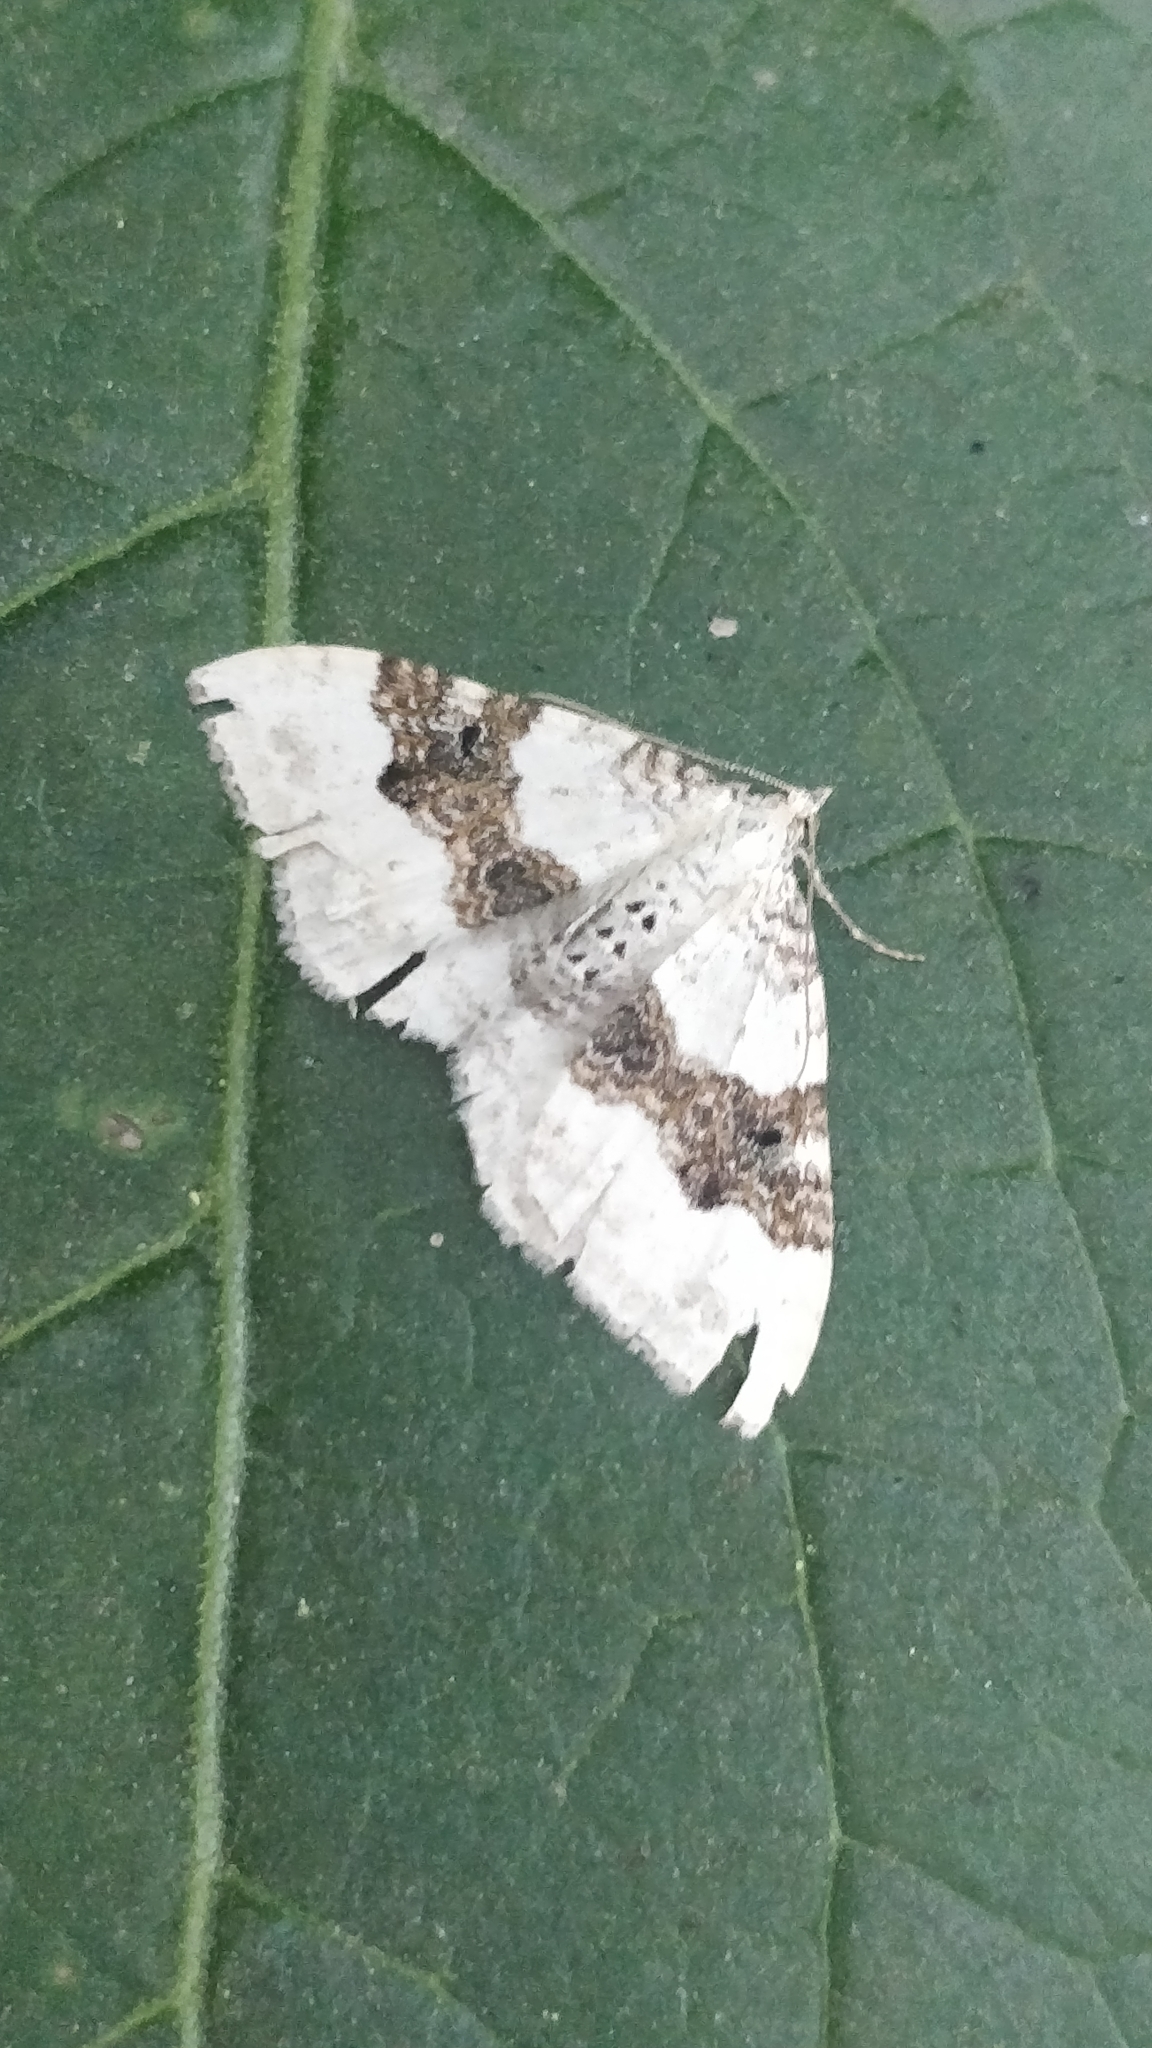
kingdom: Animalia
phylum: Arthropoda
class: Insecta
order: Lepidoptera
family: Geometridae
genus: Xanthorhoe
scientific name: Xanthorhoe montanata
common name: Silver-ground carpet
